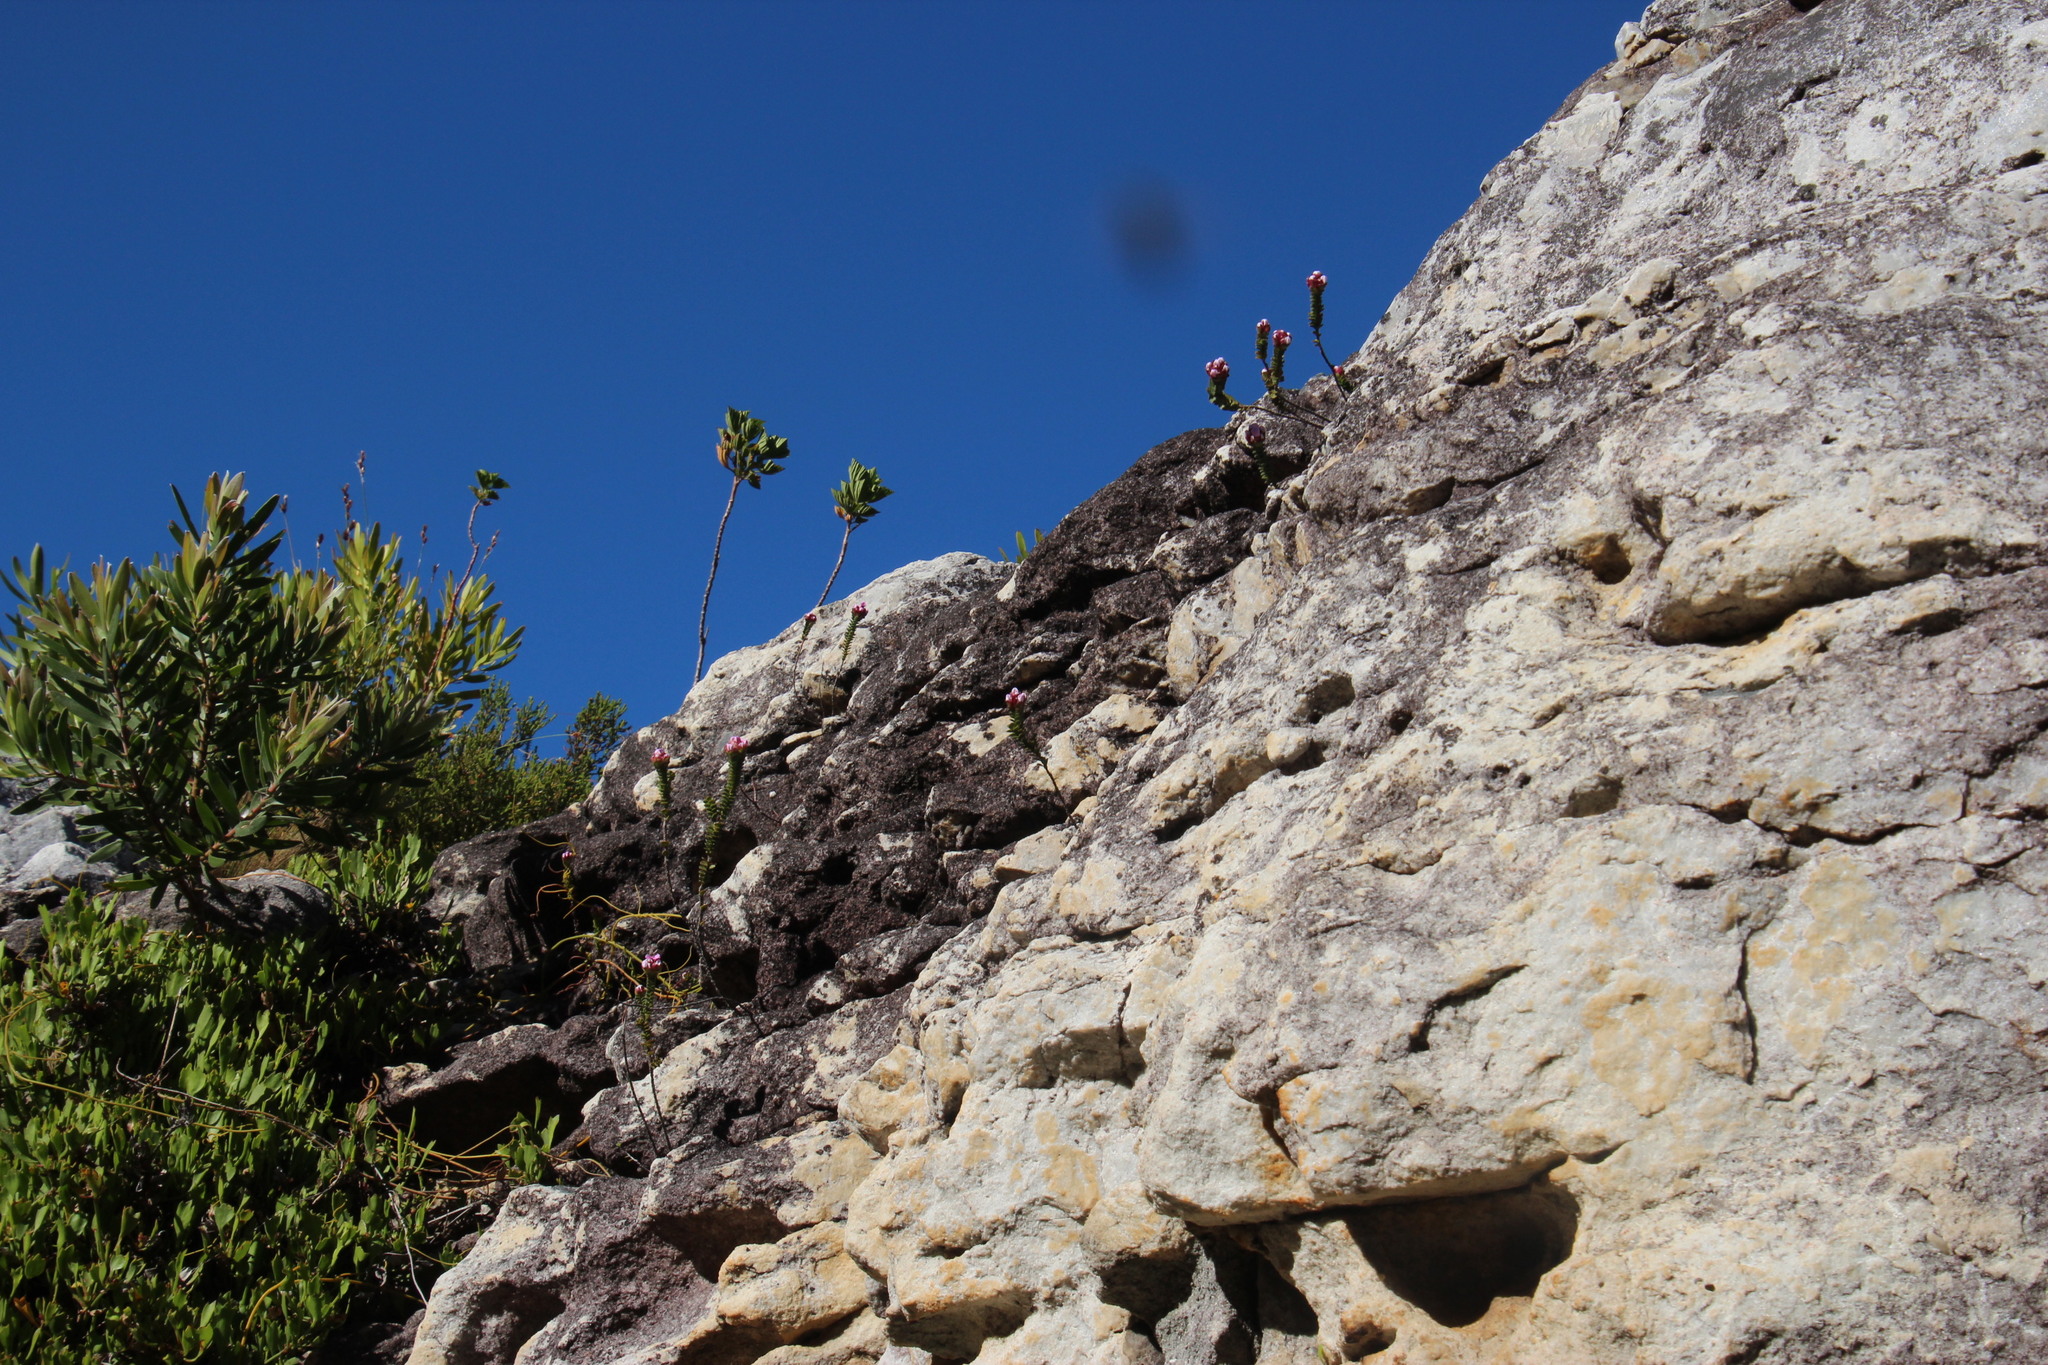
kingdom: Plantae
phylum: Tracheophyta
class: Magnoliopsida
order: Myrtales
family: Penaeaceae
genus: Sonderothamnus
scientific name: Sonderothamnus petraeus
